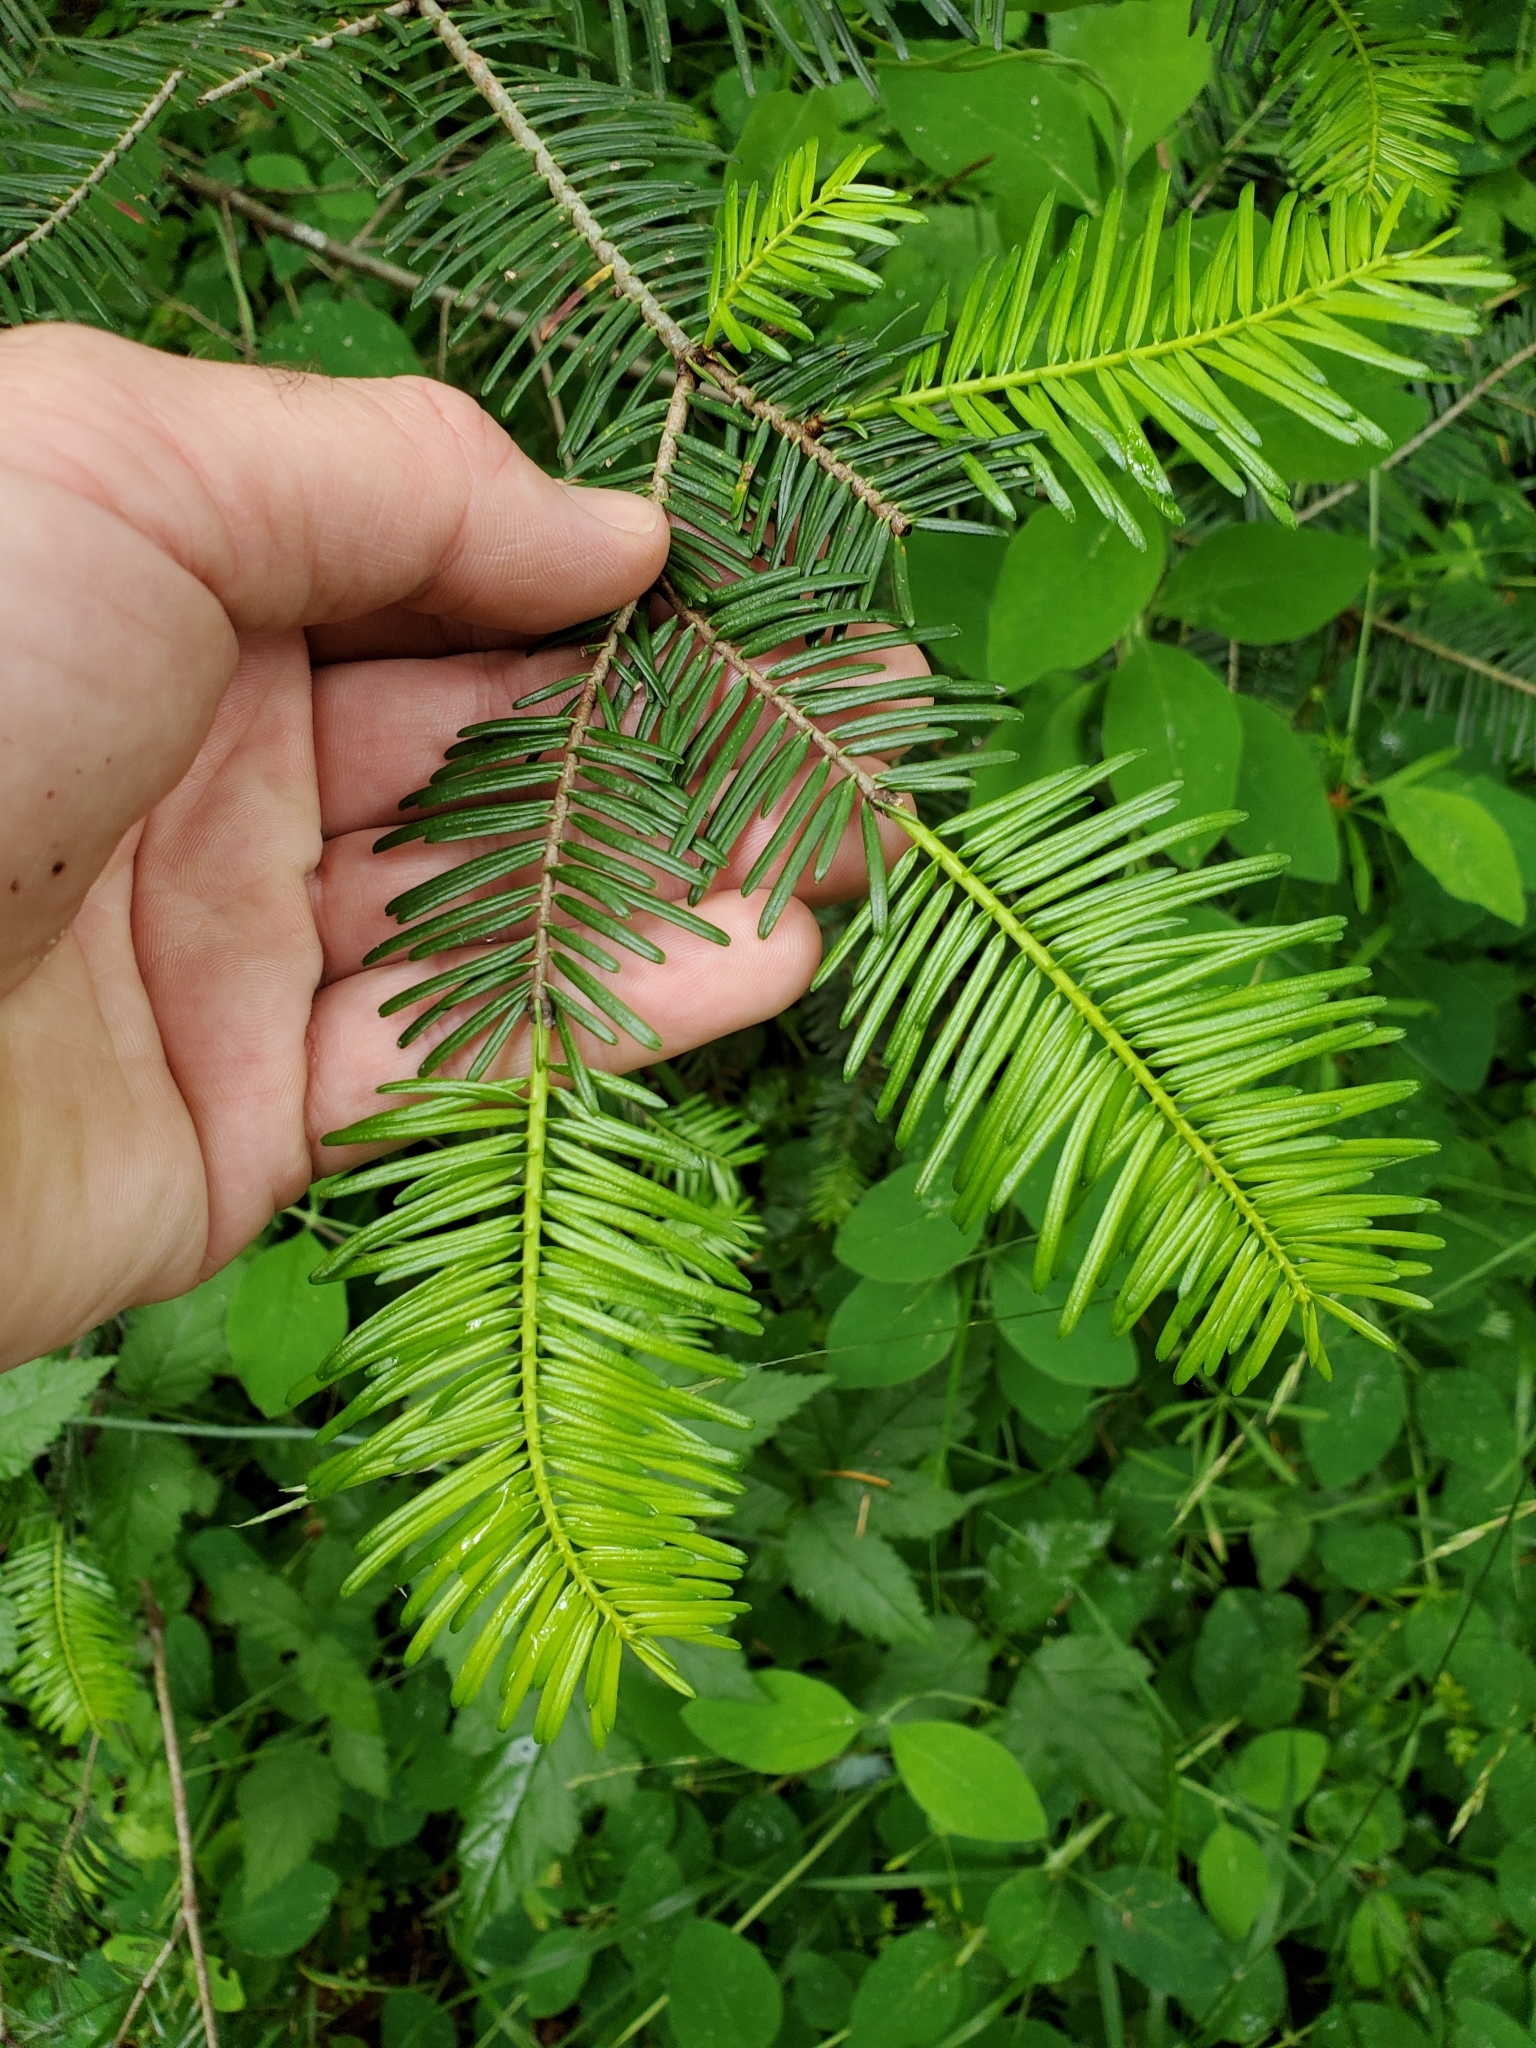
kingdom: Plantae
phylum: Tracheophyta
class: Pinopsida
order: Pinales
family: Pinaceae
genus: Abies
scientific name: Abies grandis
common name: Giant fir
